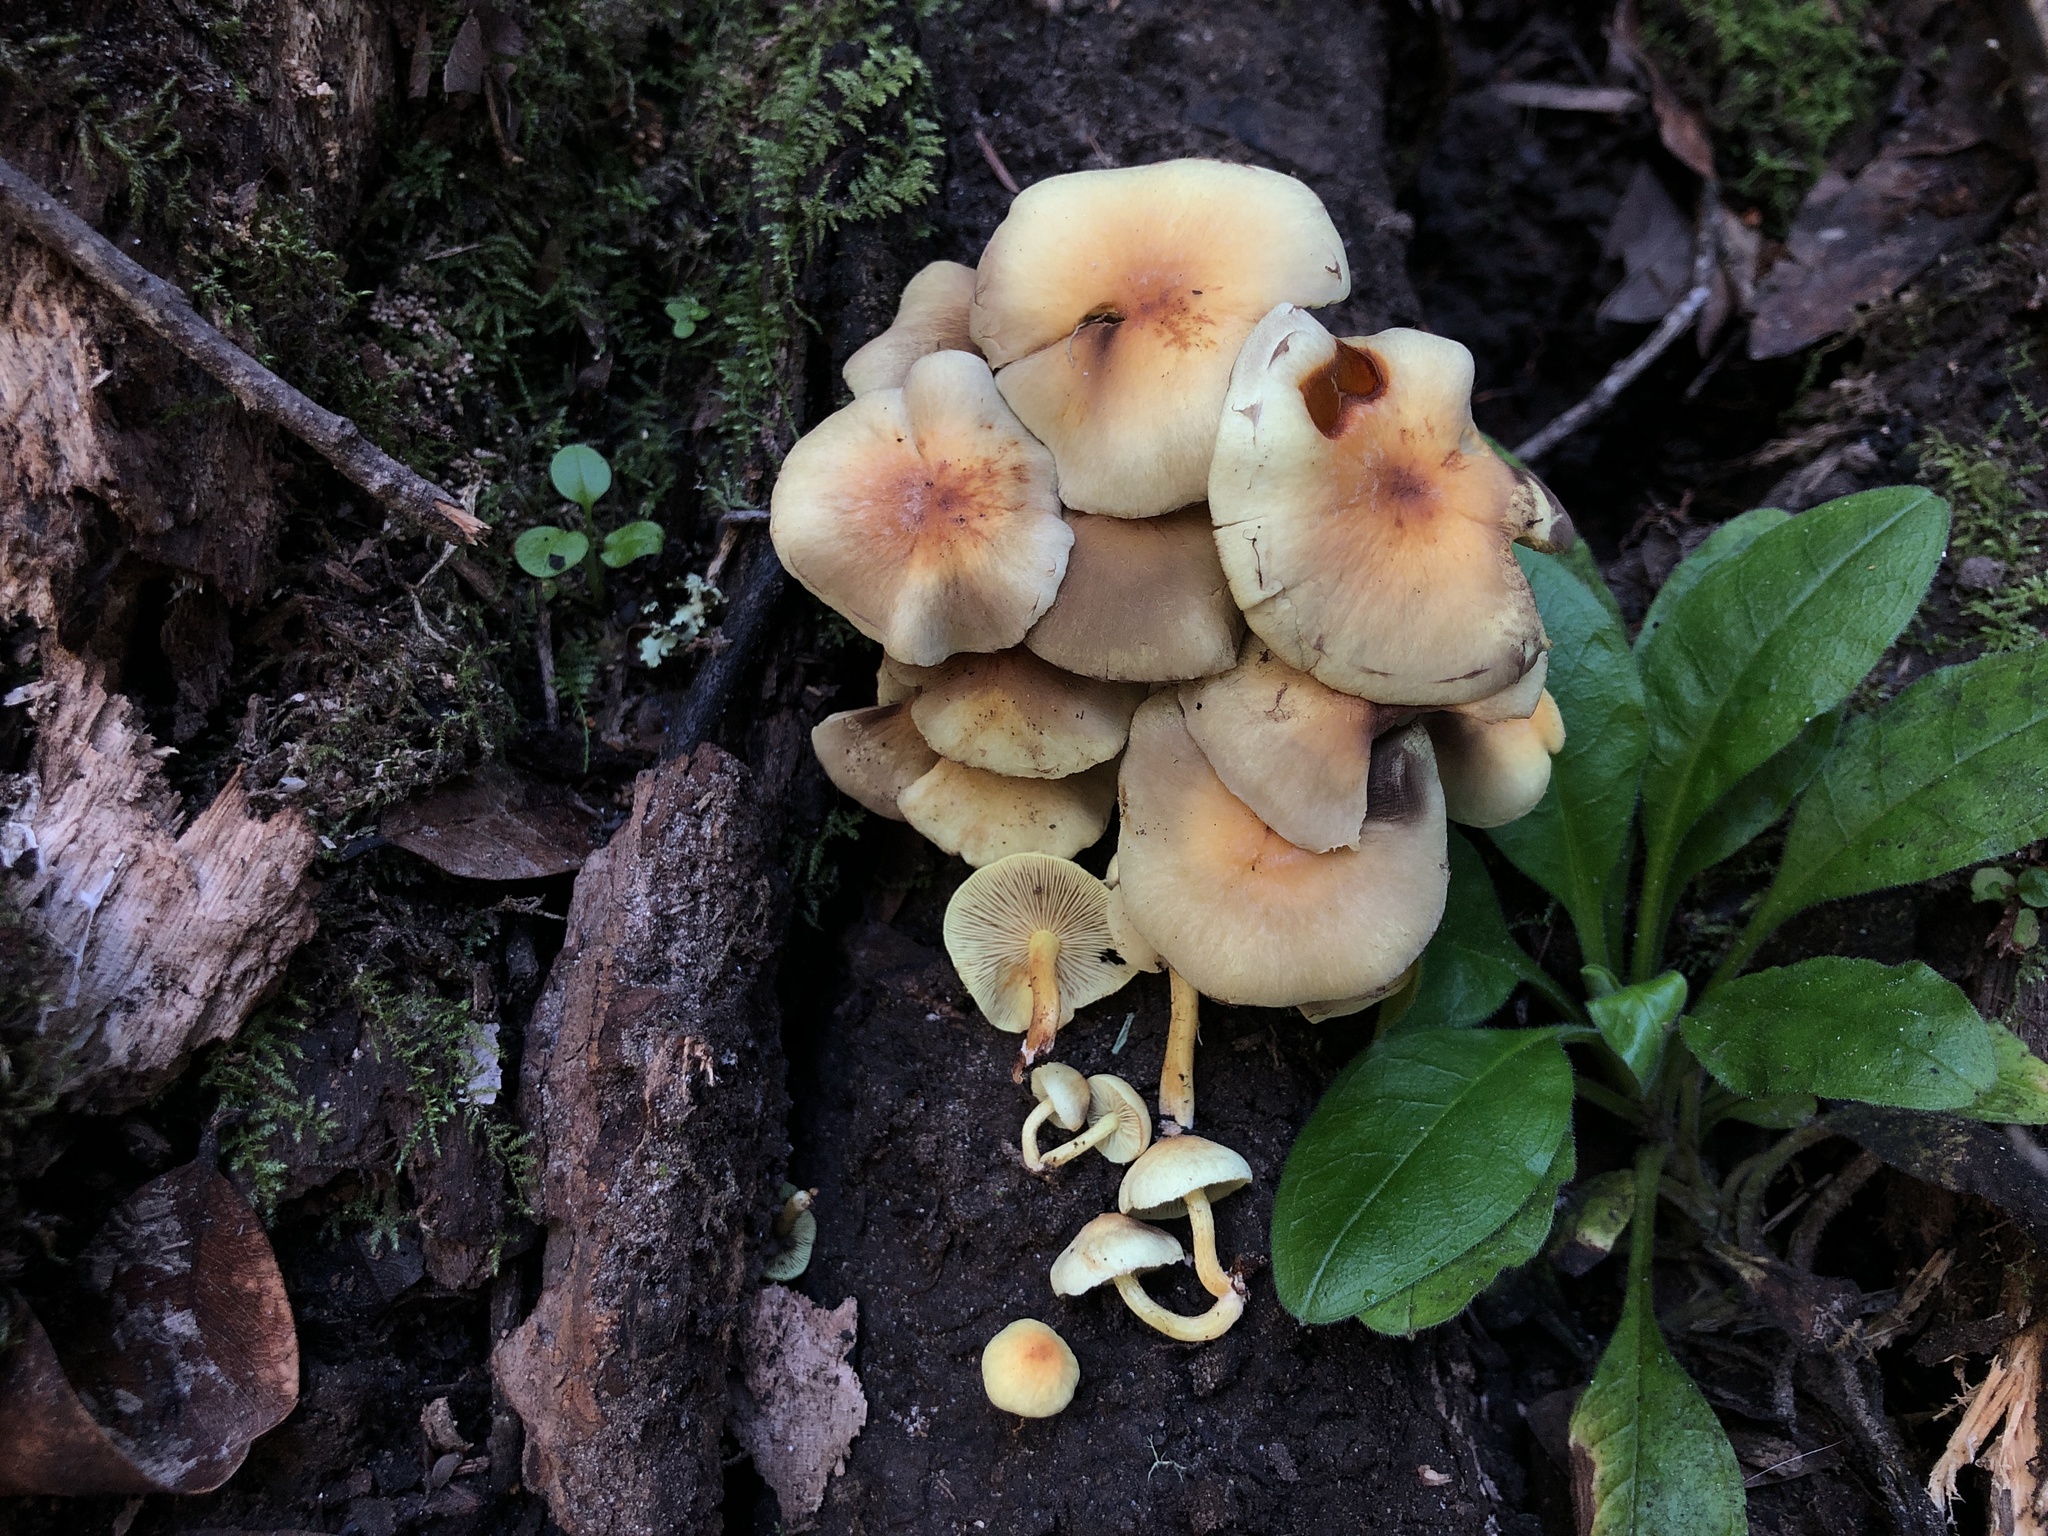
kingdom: Fungi
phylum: Basidiomycota
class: Agaricomycetes
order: Agaricales
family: Strophariaceae
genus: Hypholoma
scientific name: Hypholoma fasciculare
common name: Sulphur tuft
